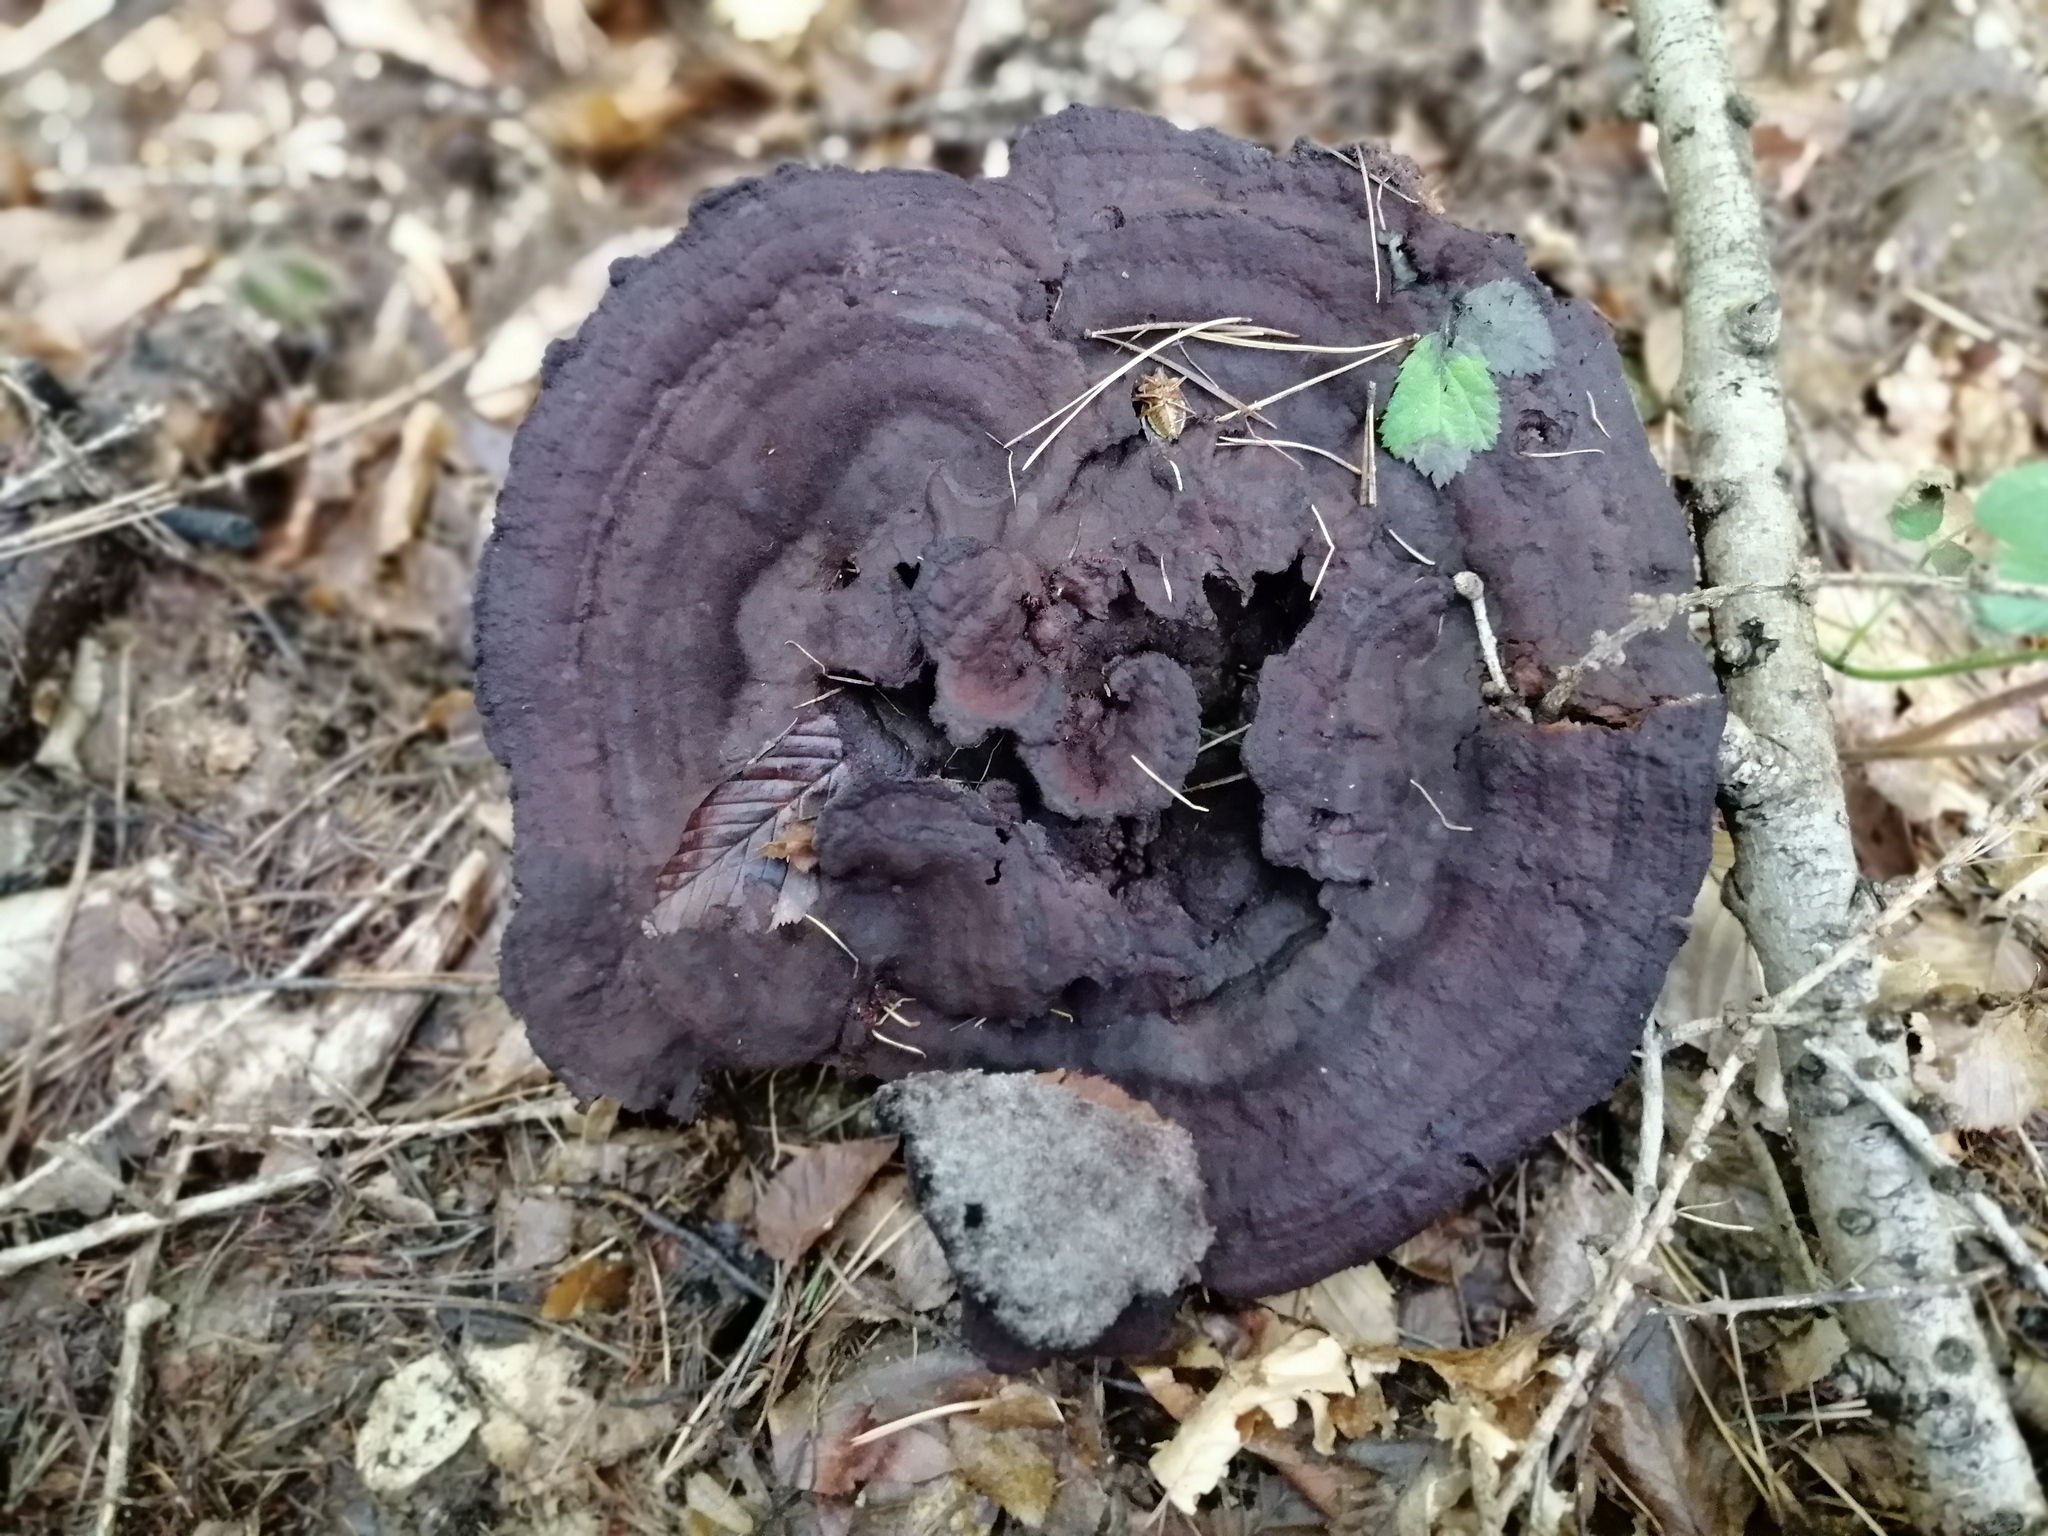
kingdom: Fungi
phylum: Basidiomycota
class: Agaricomycetes
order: Polyporales
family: Laetiporaceae
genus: Phaeolus
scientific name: Phaeolus schweinitzii
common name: Dyer's mazegill
